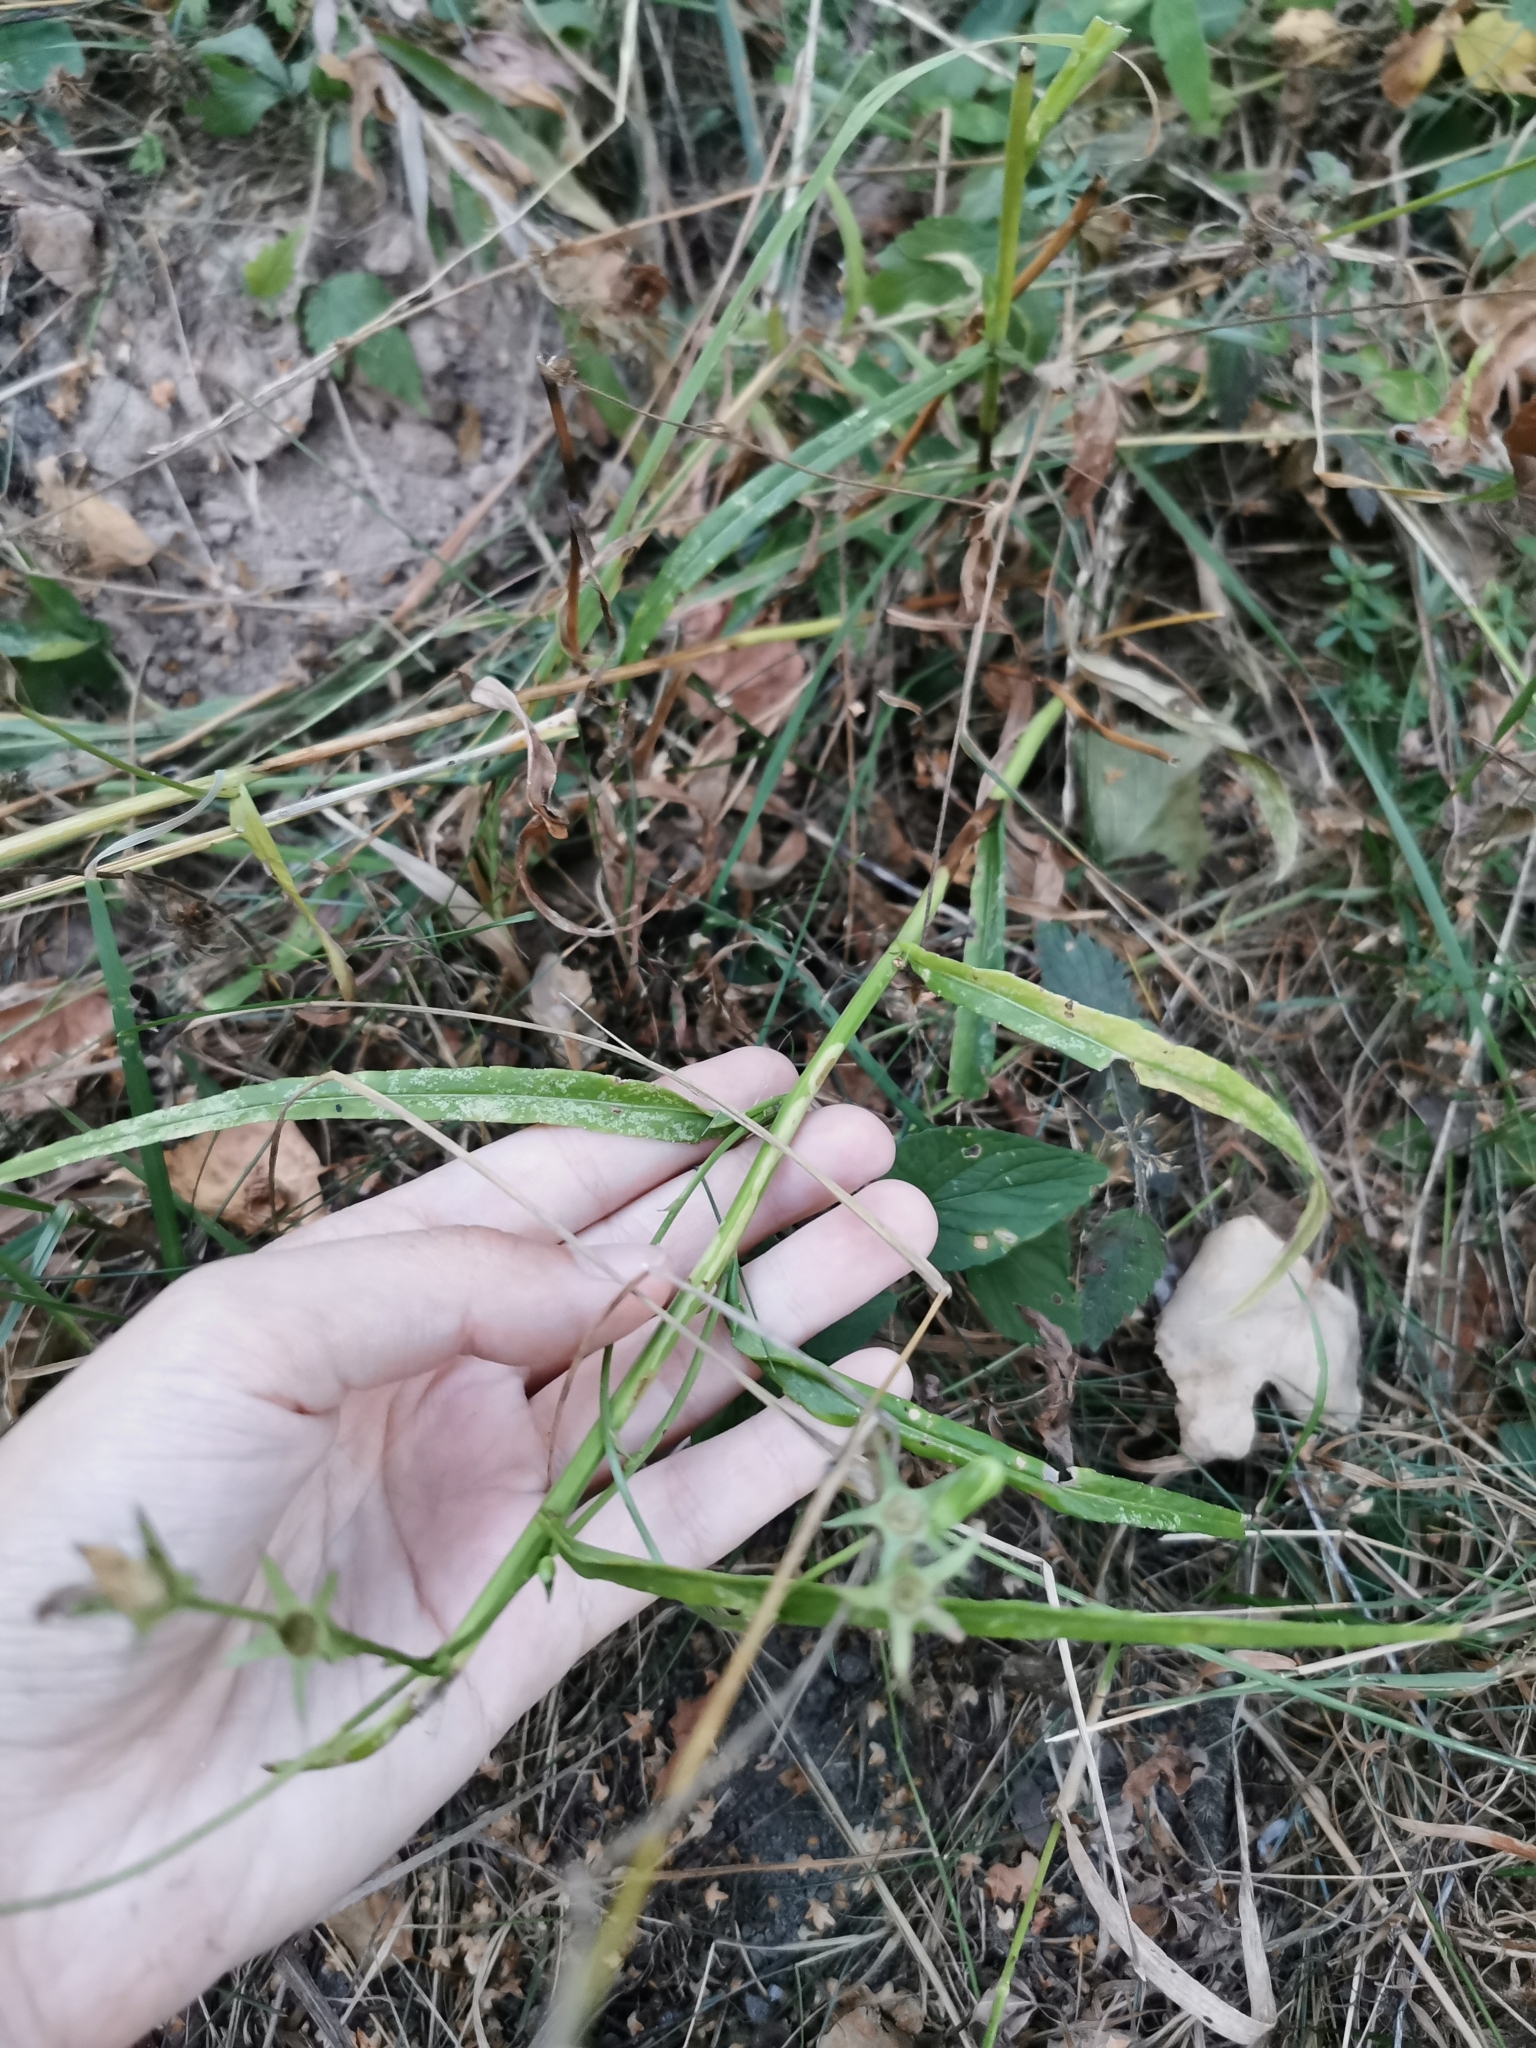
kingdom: Plantae
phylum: Tracheophyta
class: Magnoliopsida
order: Asterales
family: Campanulaceae
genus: Campanula
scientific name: Campanula persicifolia
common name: Peach-leaved bellflower
